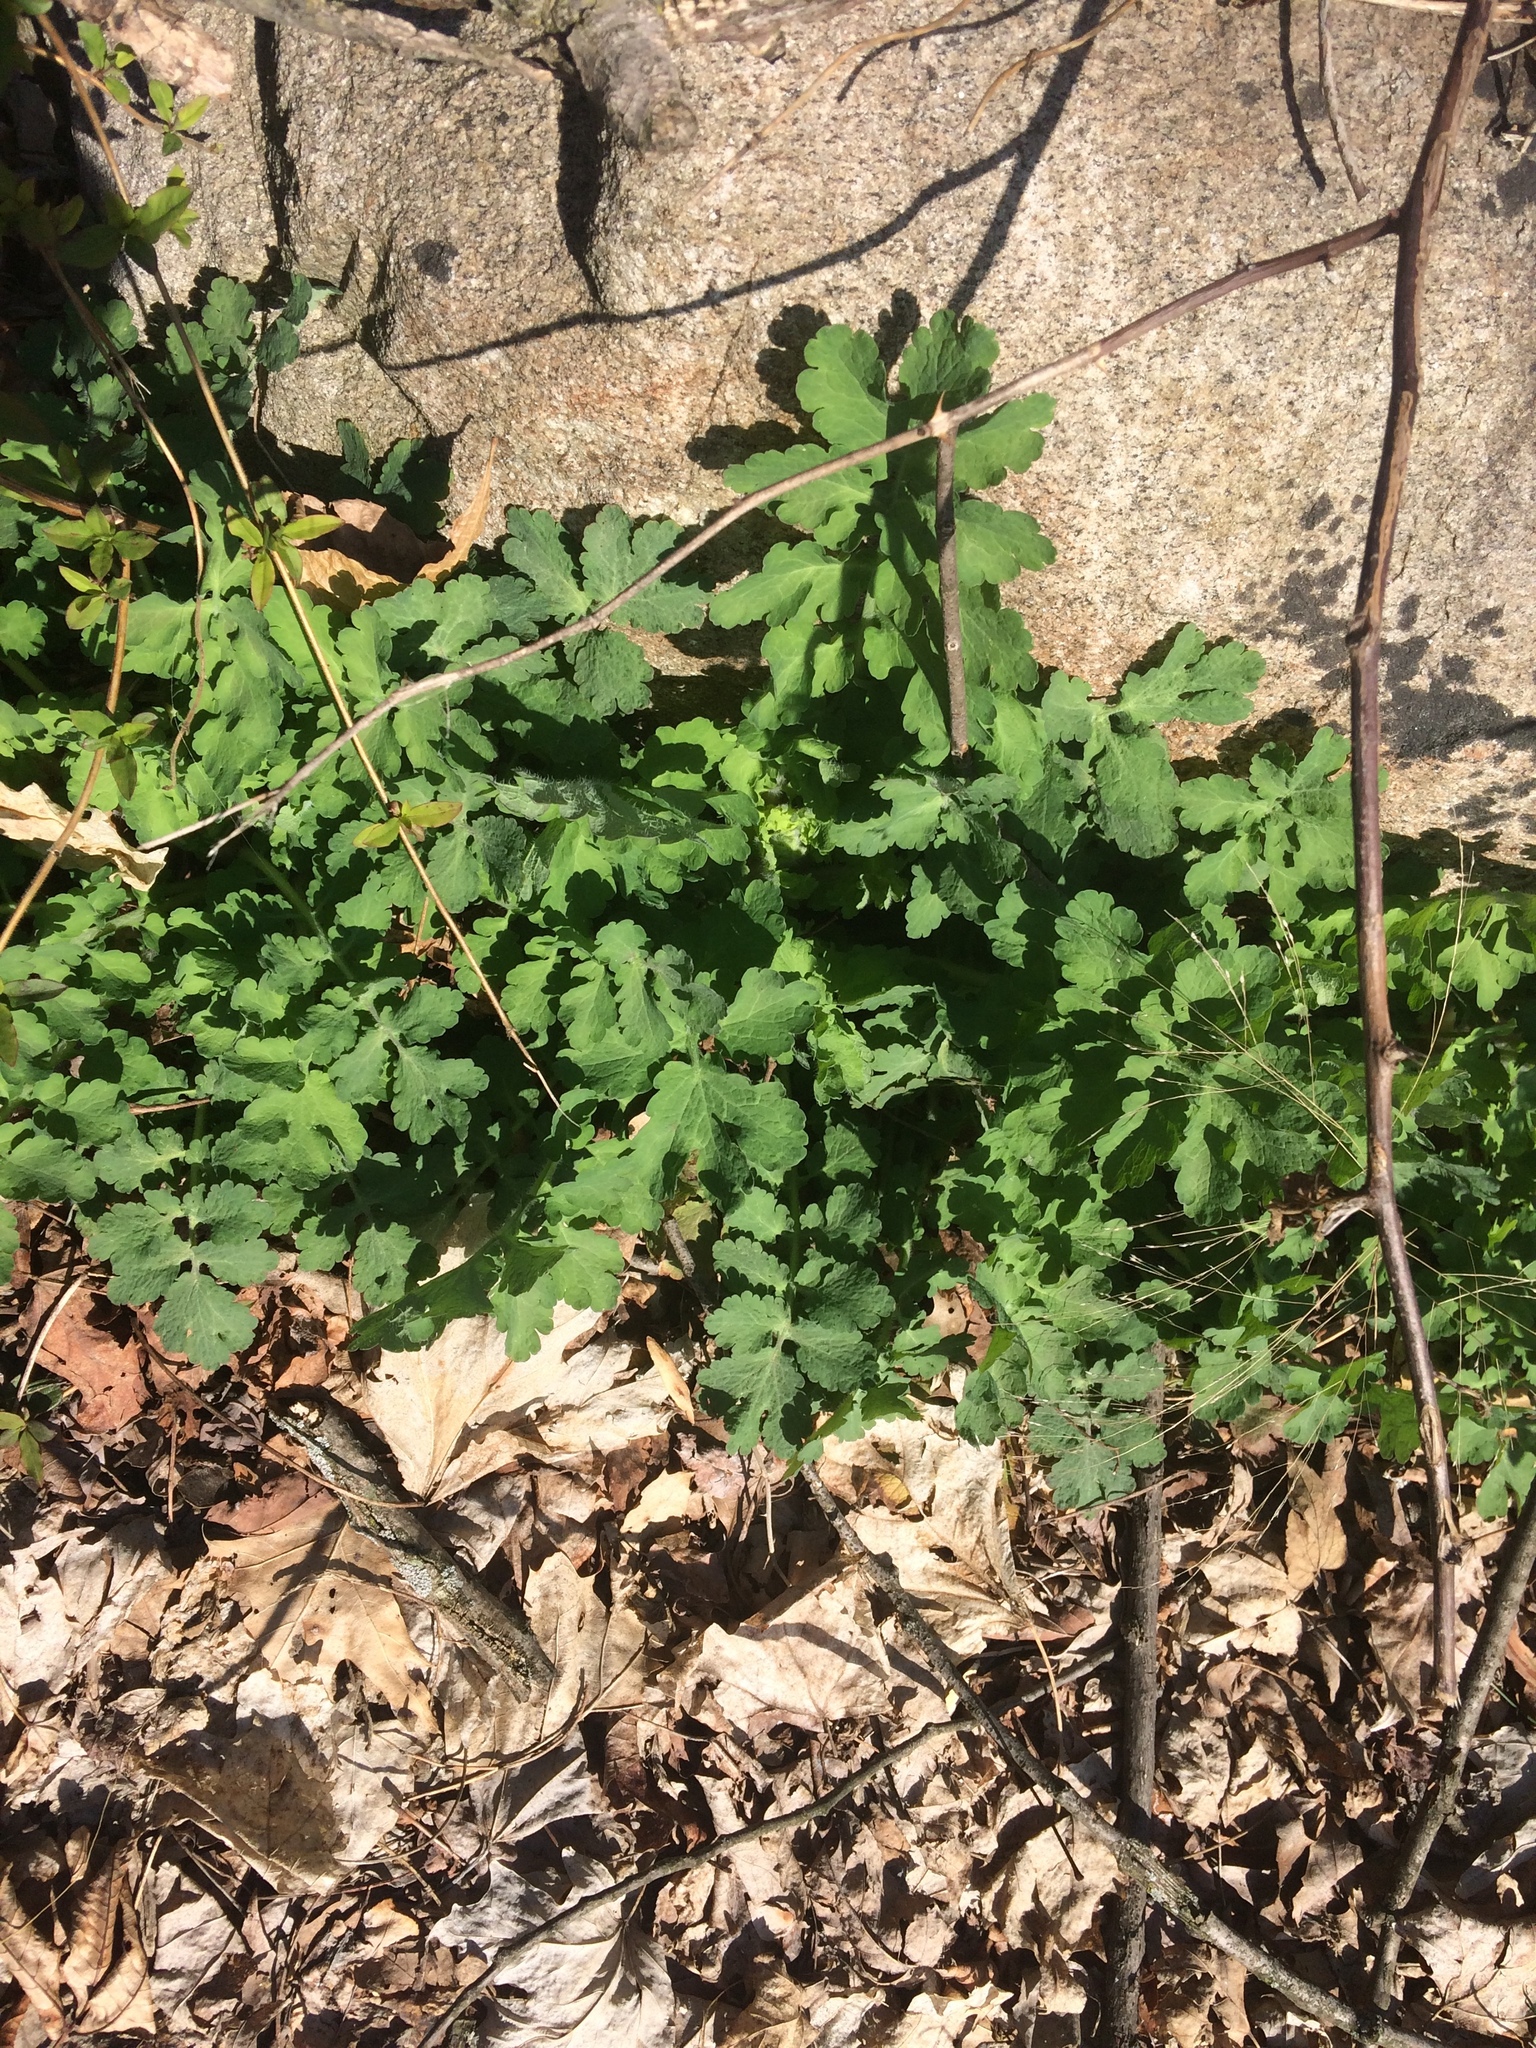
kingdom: Plantae
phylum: Tracheophyta
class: Magnoliopsida
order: Ranunculales
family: Papaveraceae
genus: Chelidonium
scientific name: Chelidonium majus
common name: Greater celandine
